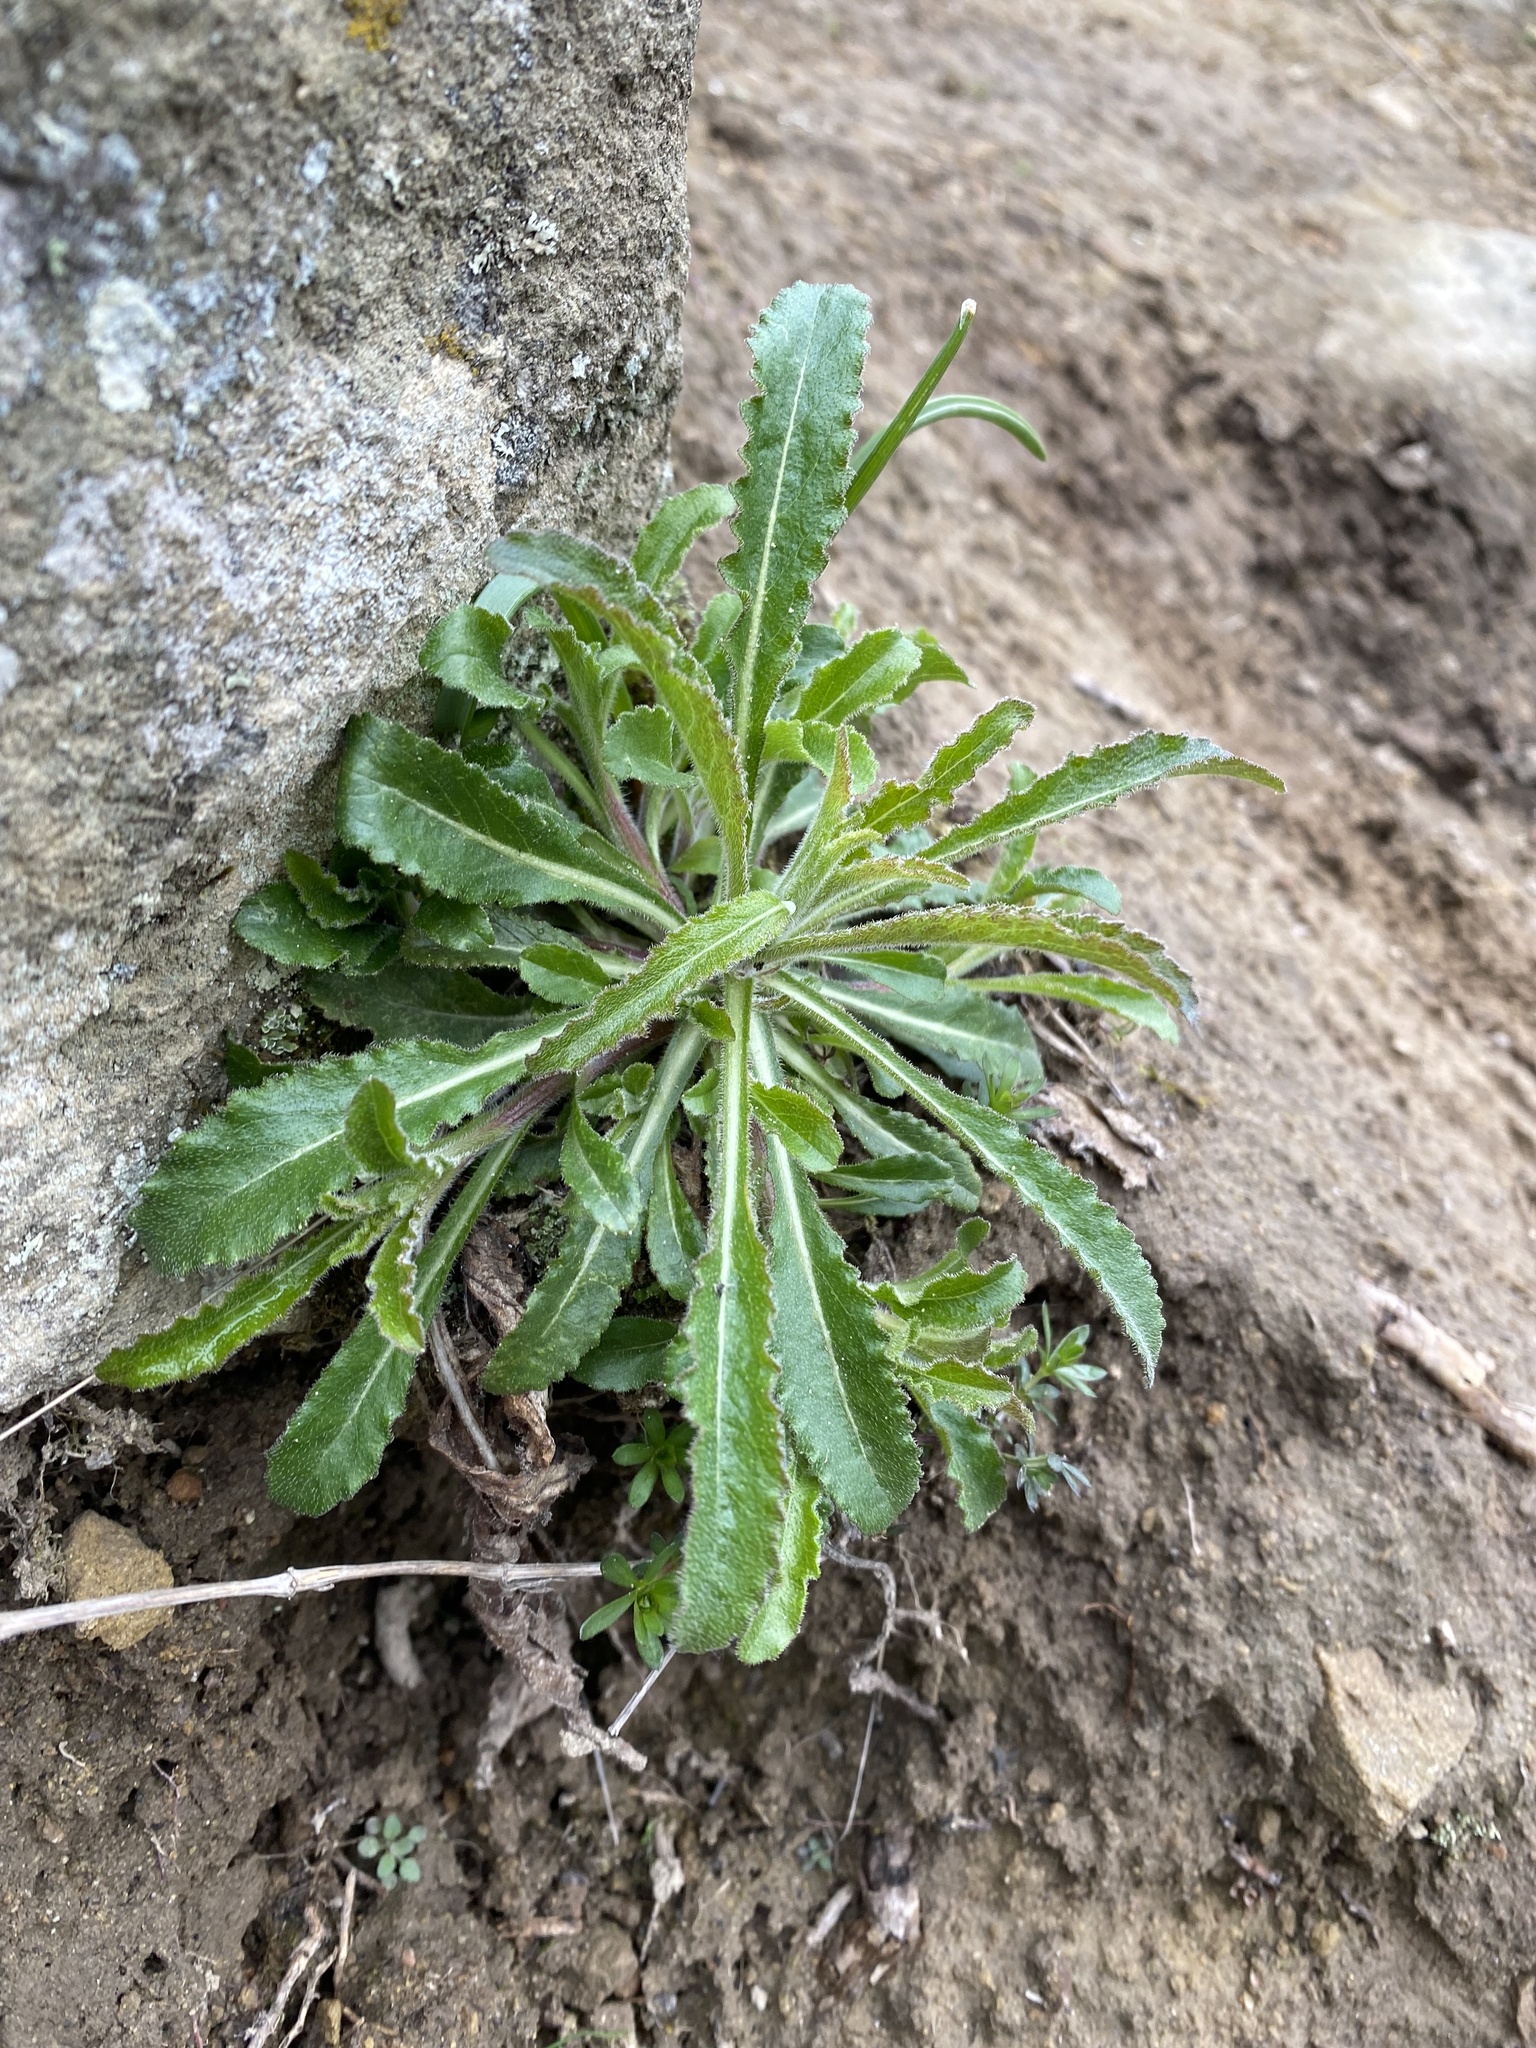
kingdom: Plantae
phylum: Tracheophyta
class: Magnoliopsida
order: Asterales
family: Campanulaceae
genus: Campanula
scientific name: Campanula komarovii
